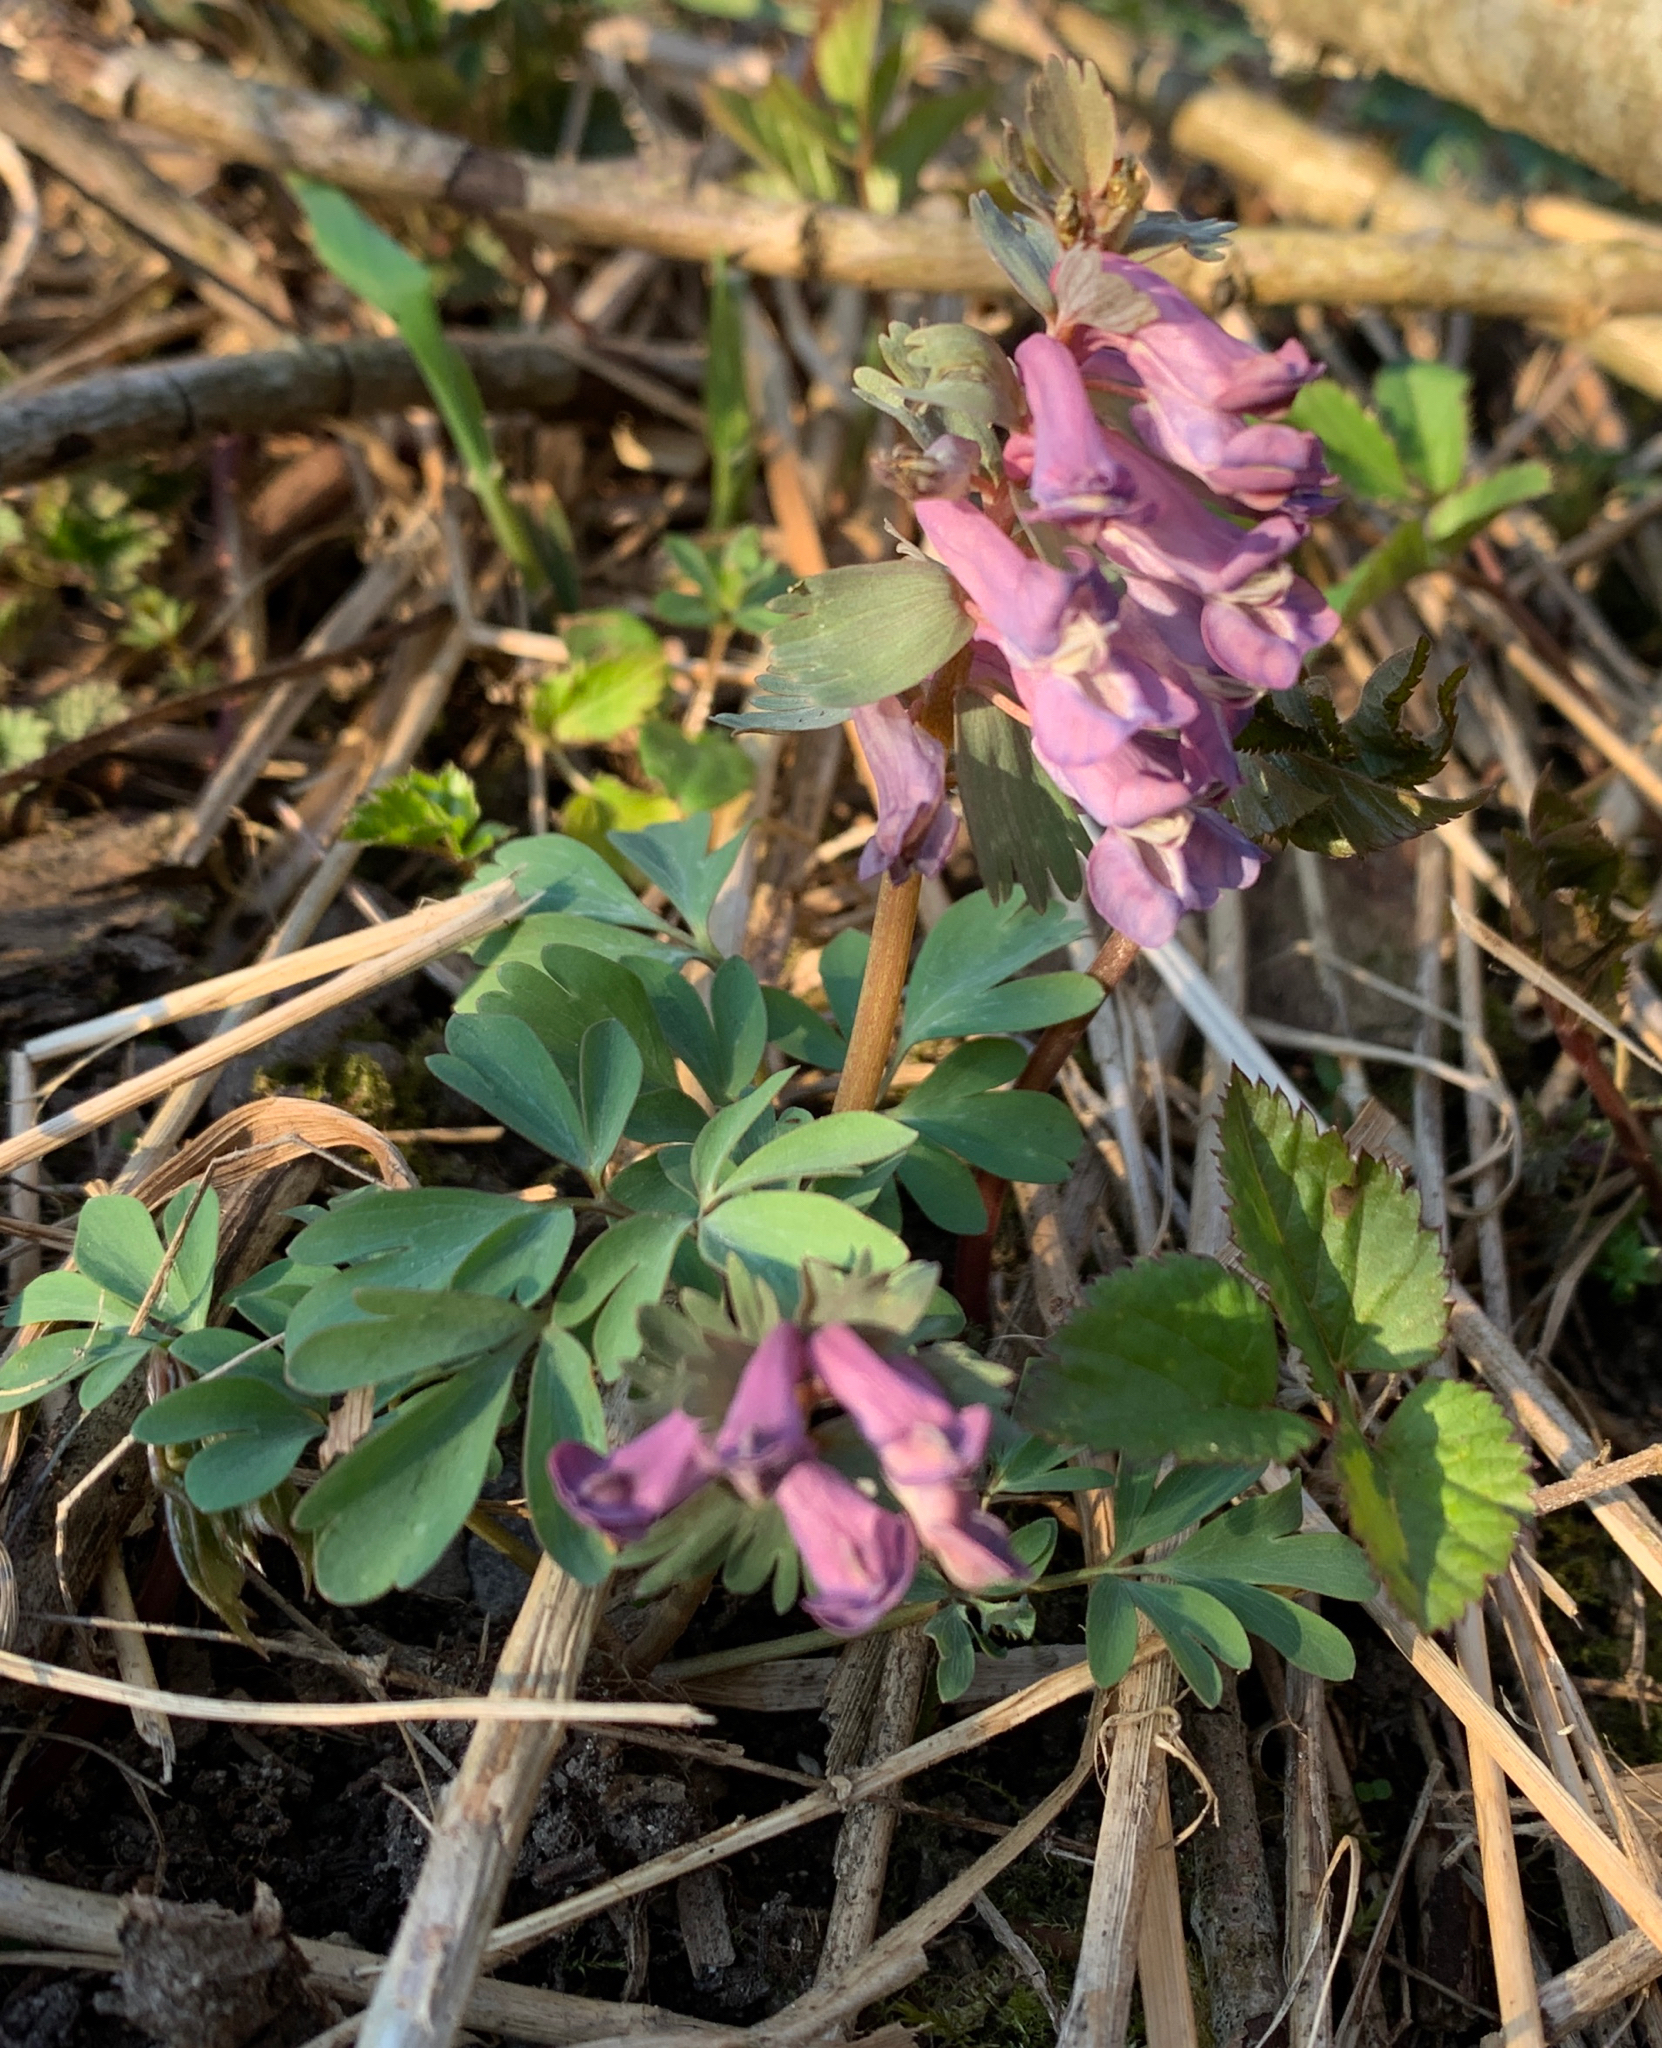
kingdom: Plantae
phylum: Tracheophyta
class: Magnoliopsida
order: Ranunculales
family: Papaveraceae
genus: Corydalis
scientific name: Corydalis solida
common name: Bird-in-a-bush
